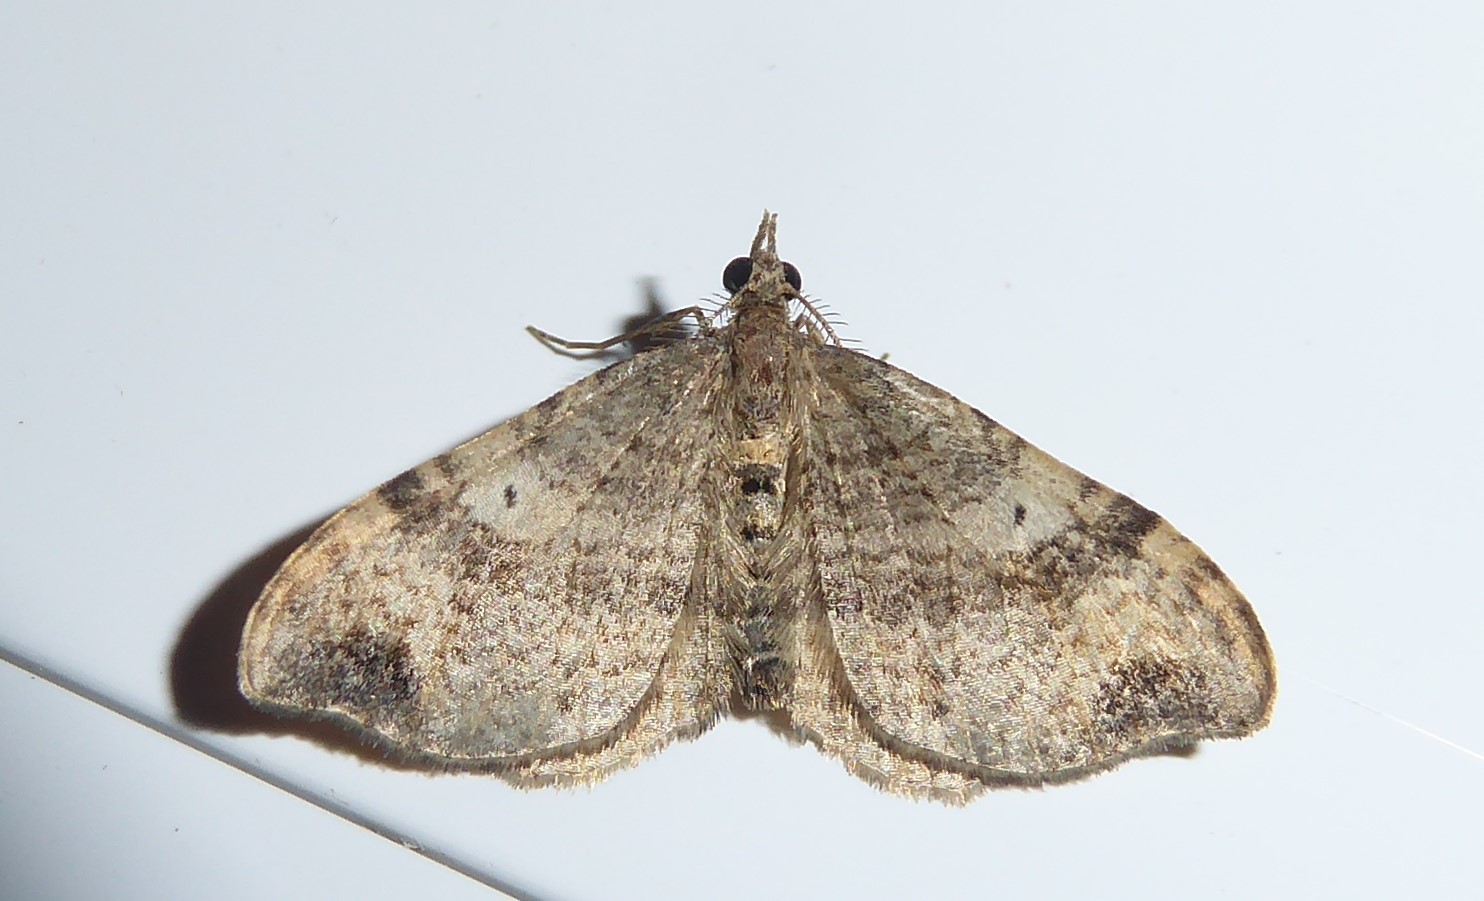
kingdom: Animalia
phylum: Arthropoda
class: Insecta
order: Lepidoptera
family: Geometridae
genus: Homodotis
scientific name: Homodotis megaspilata
